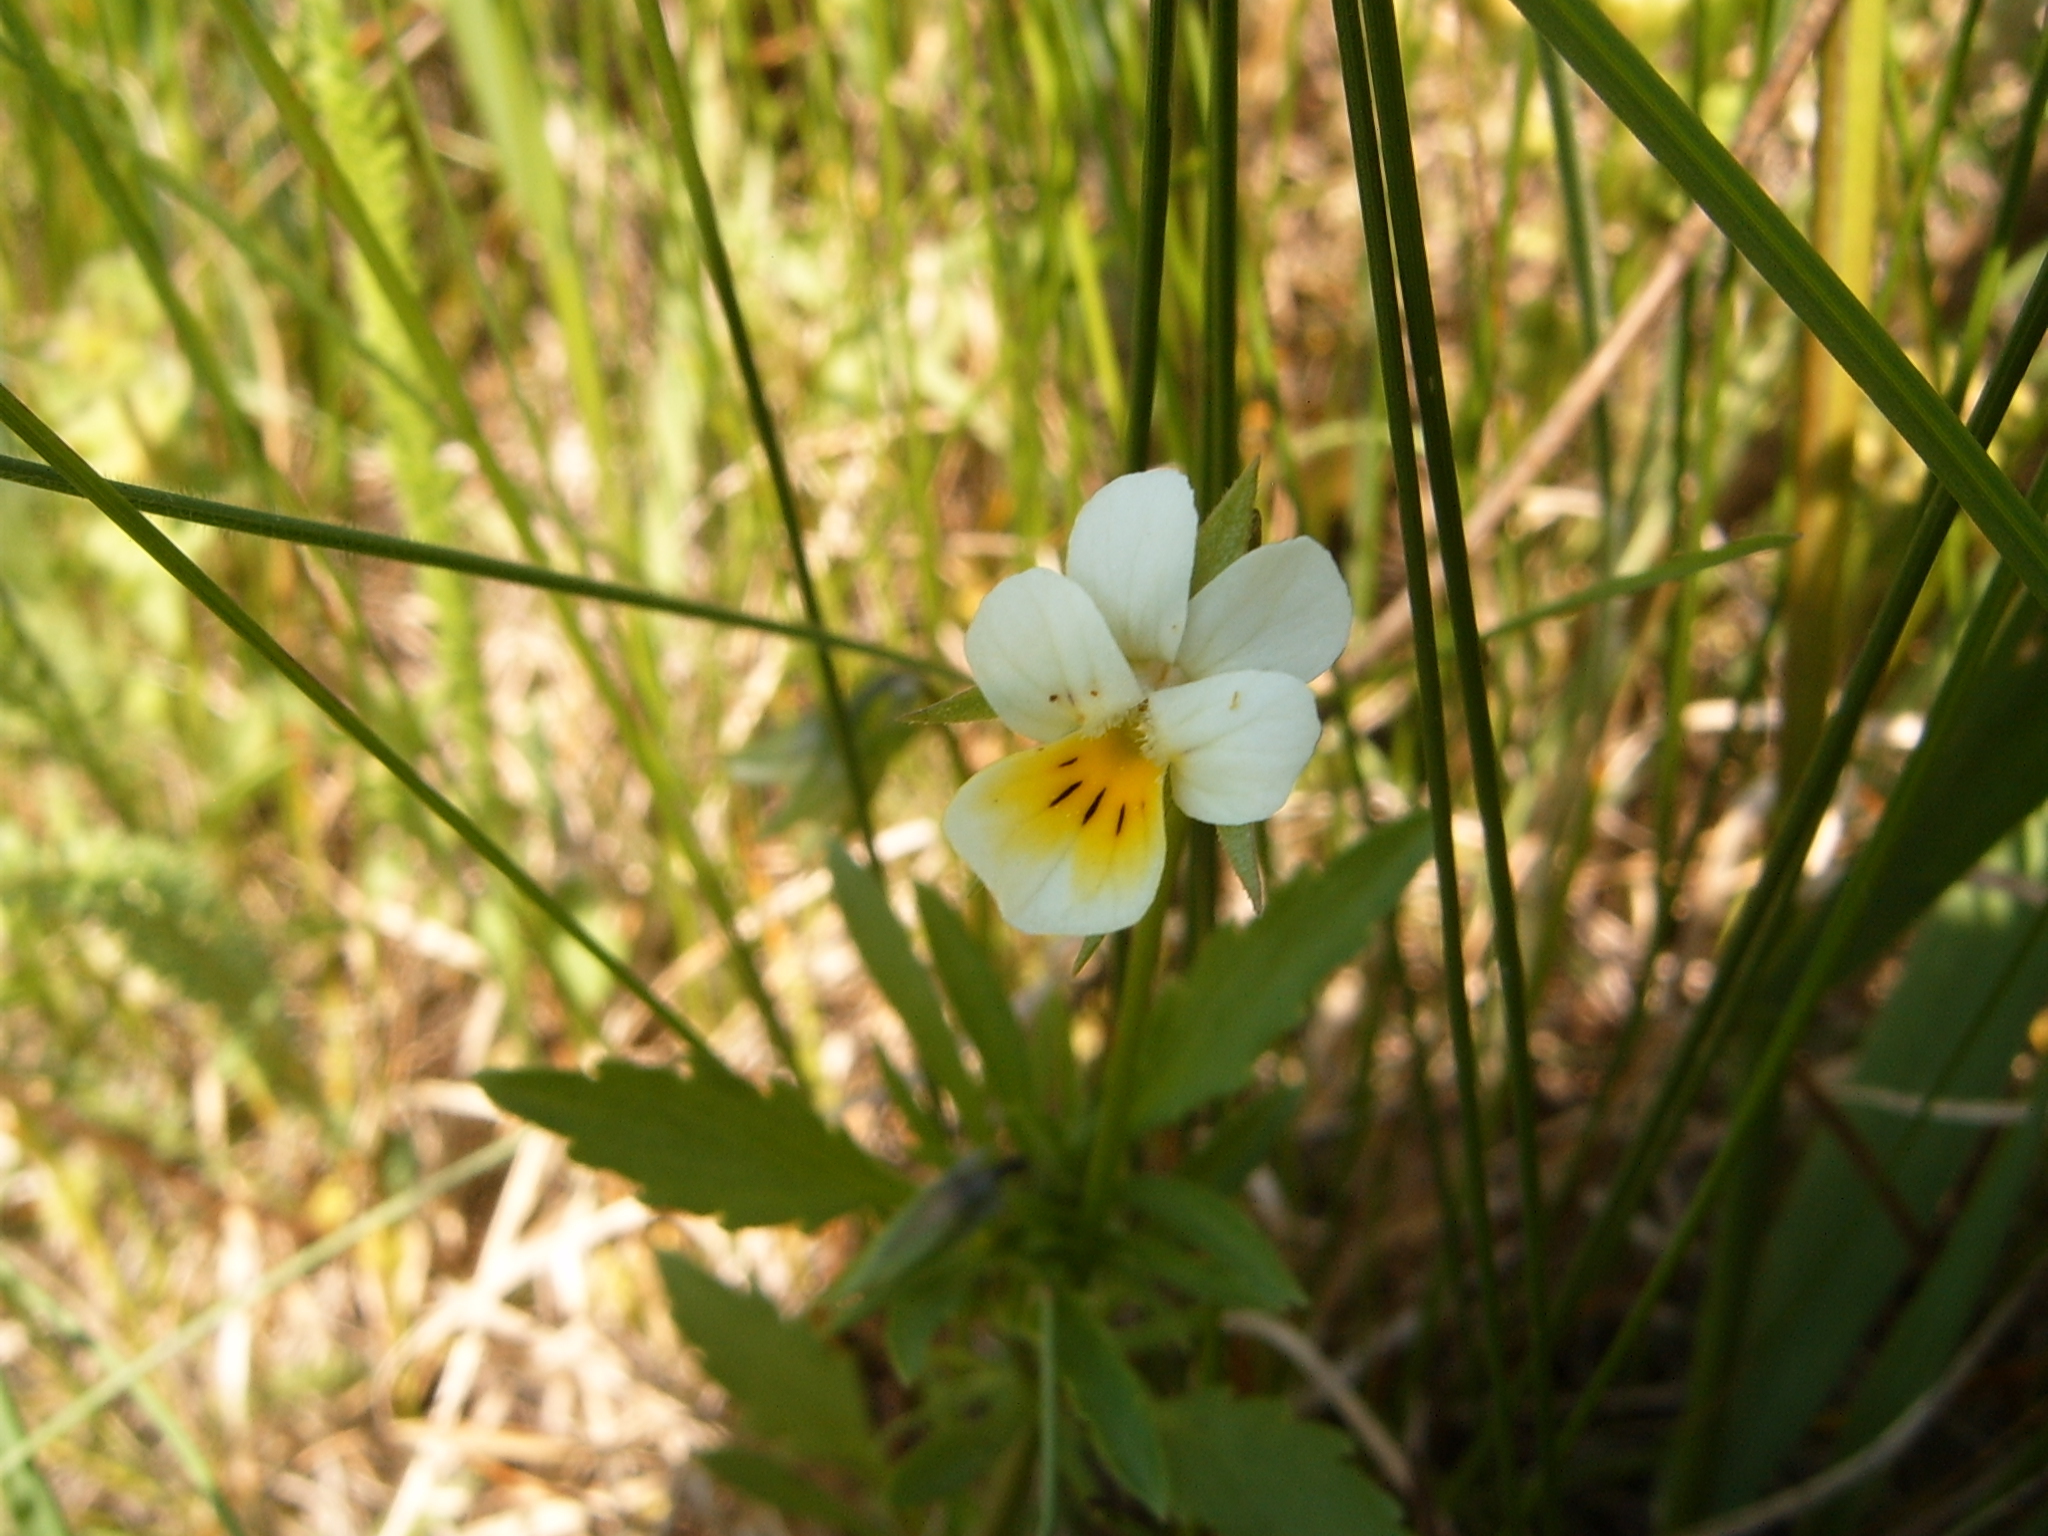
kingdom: Plantae
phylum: Tracheophyta
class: Magnoliopsida
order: Malpighiales
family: Violaceae
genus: Viola
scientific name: Viola arvensis
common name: Field pansy
